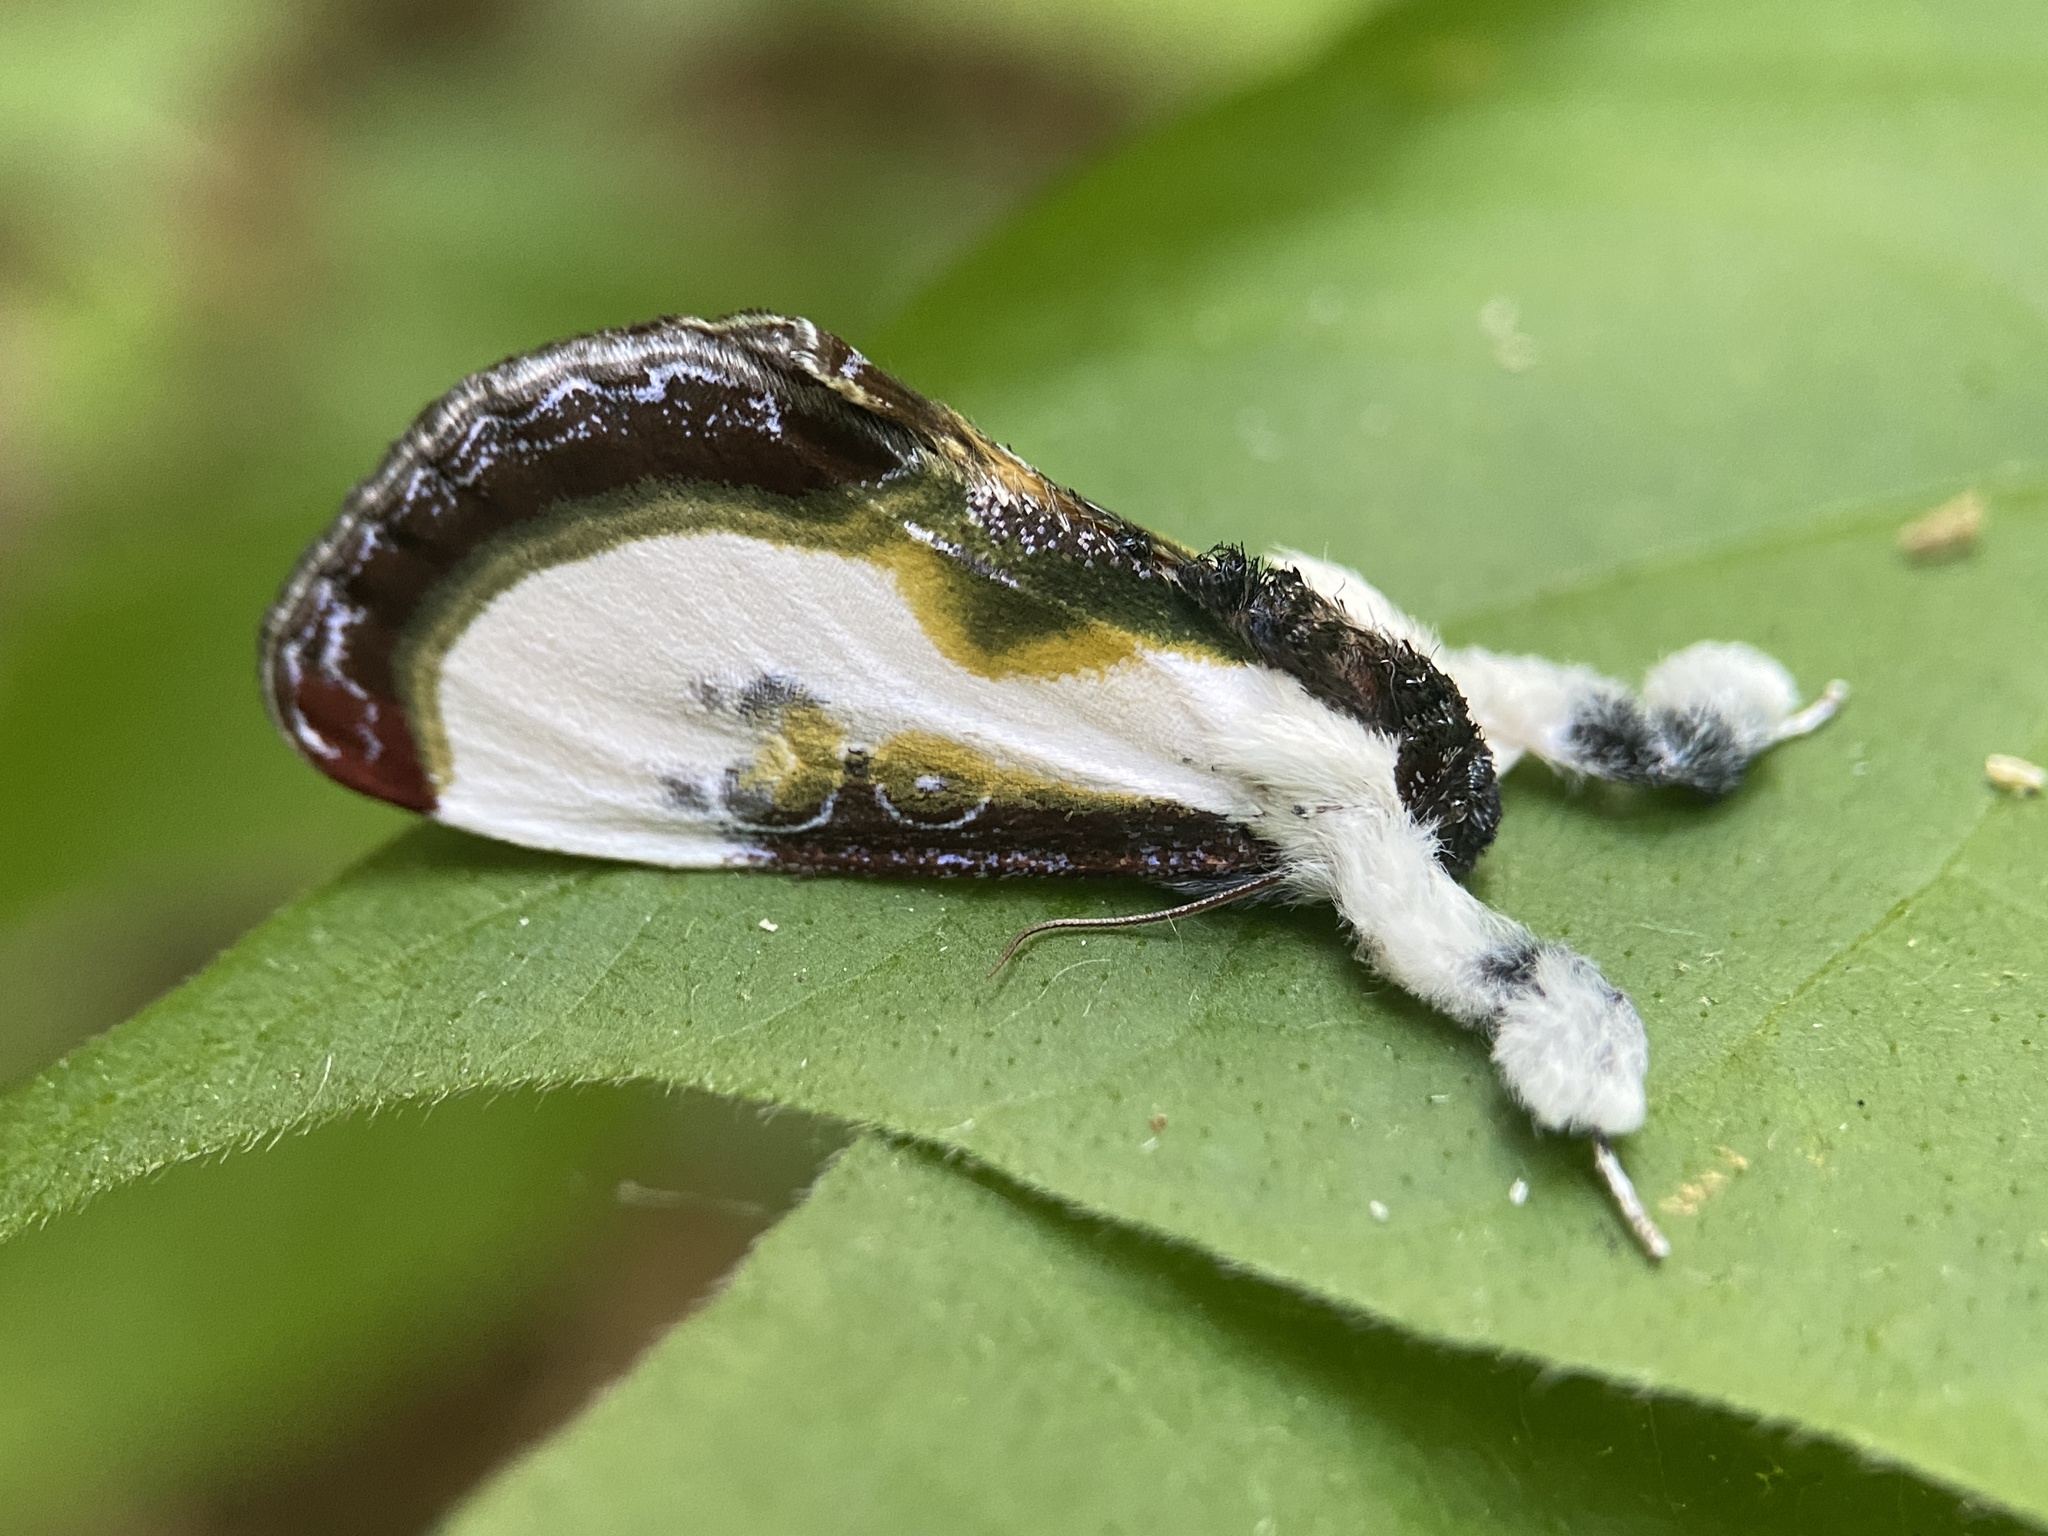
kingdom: Animalia
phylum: Arthropoda
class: Insecta
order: Lepidoptera
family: Noctuidae
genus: Eudryas
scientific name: Eudryas grata
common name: Beautiful wood-nymph
